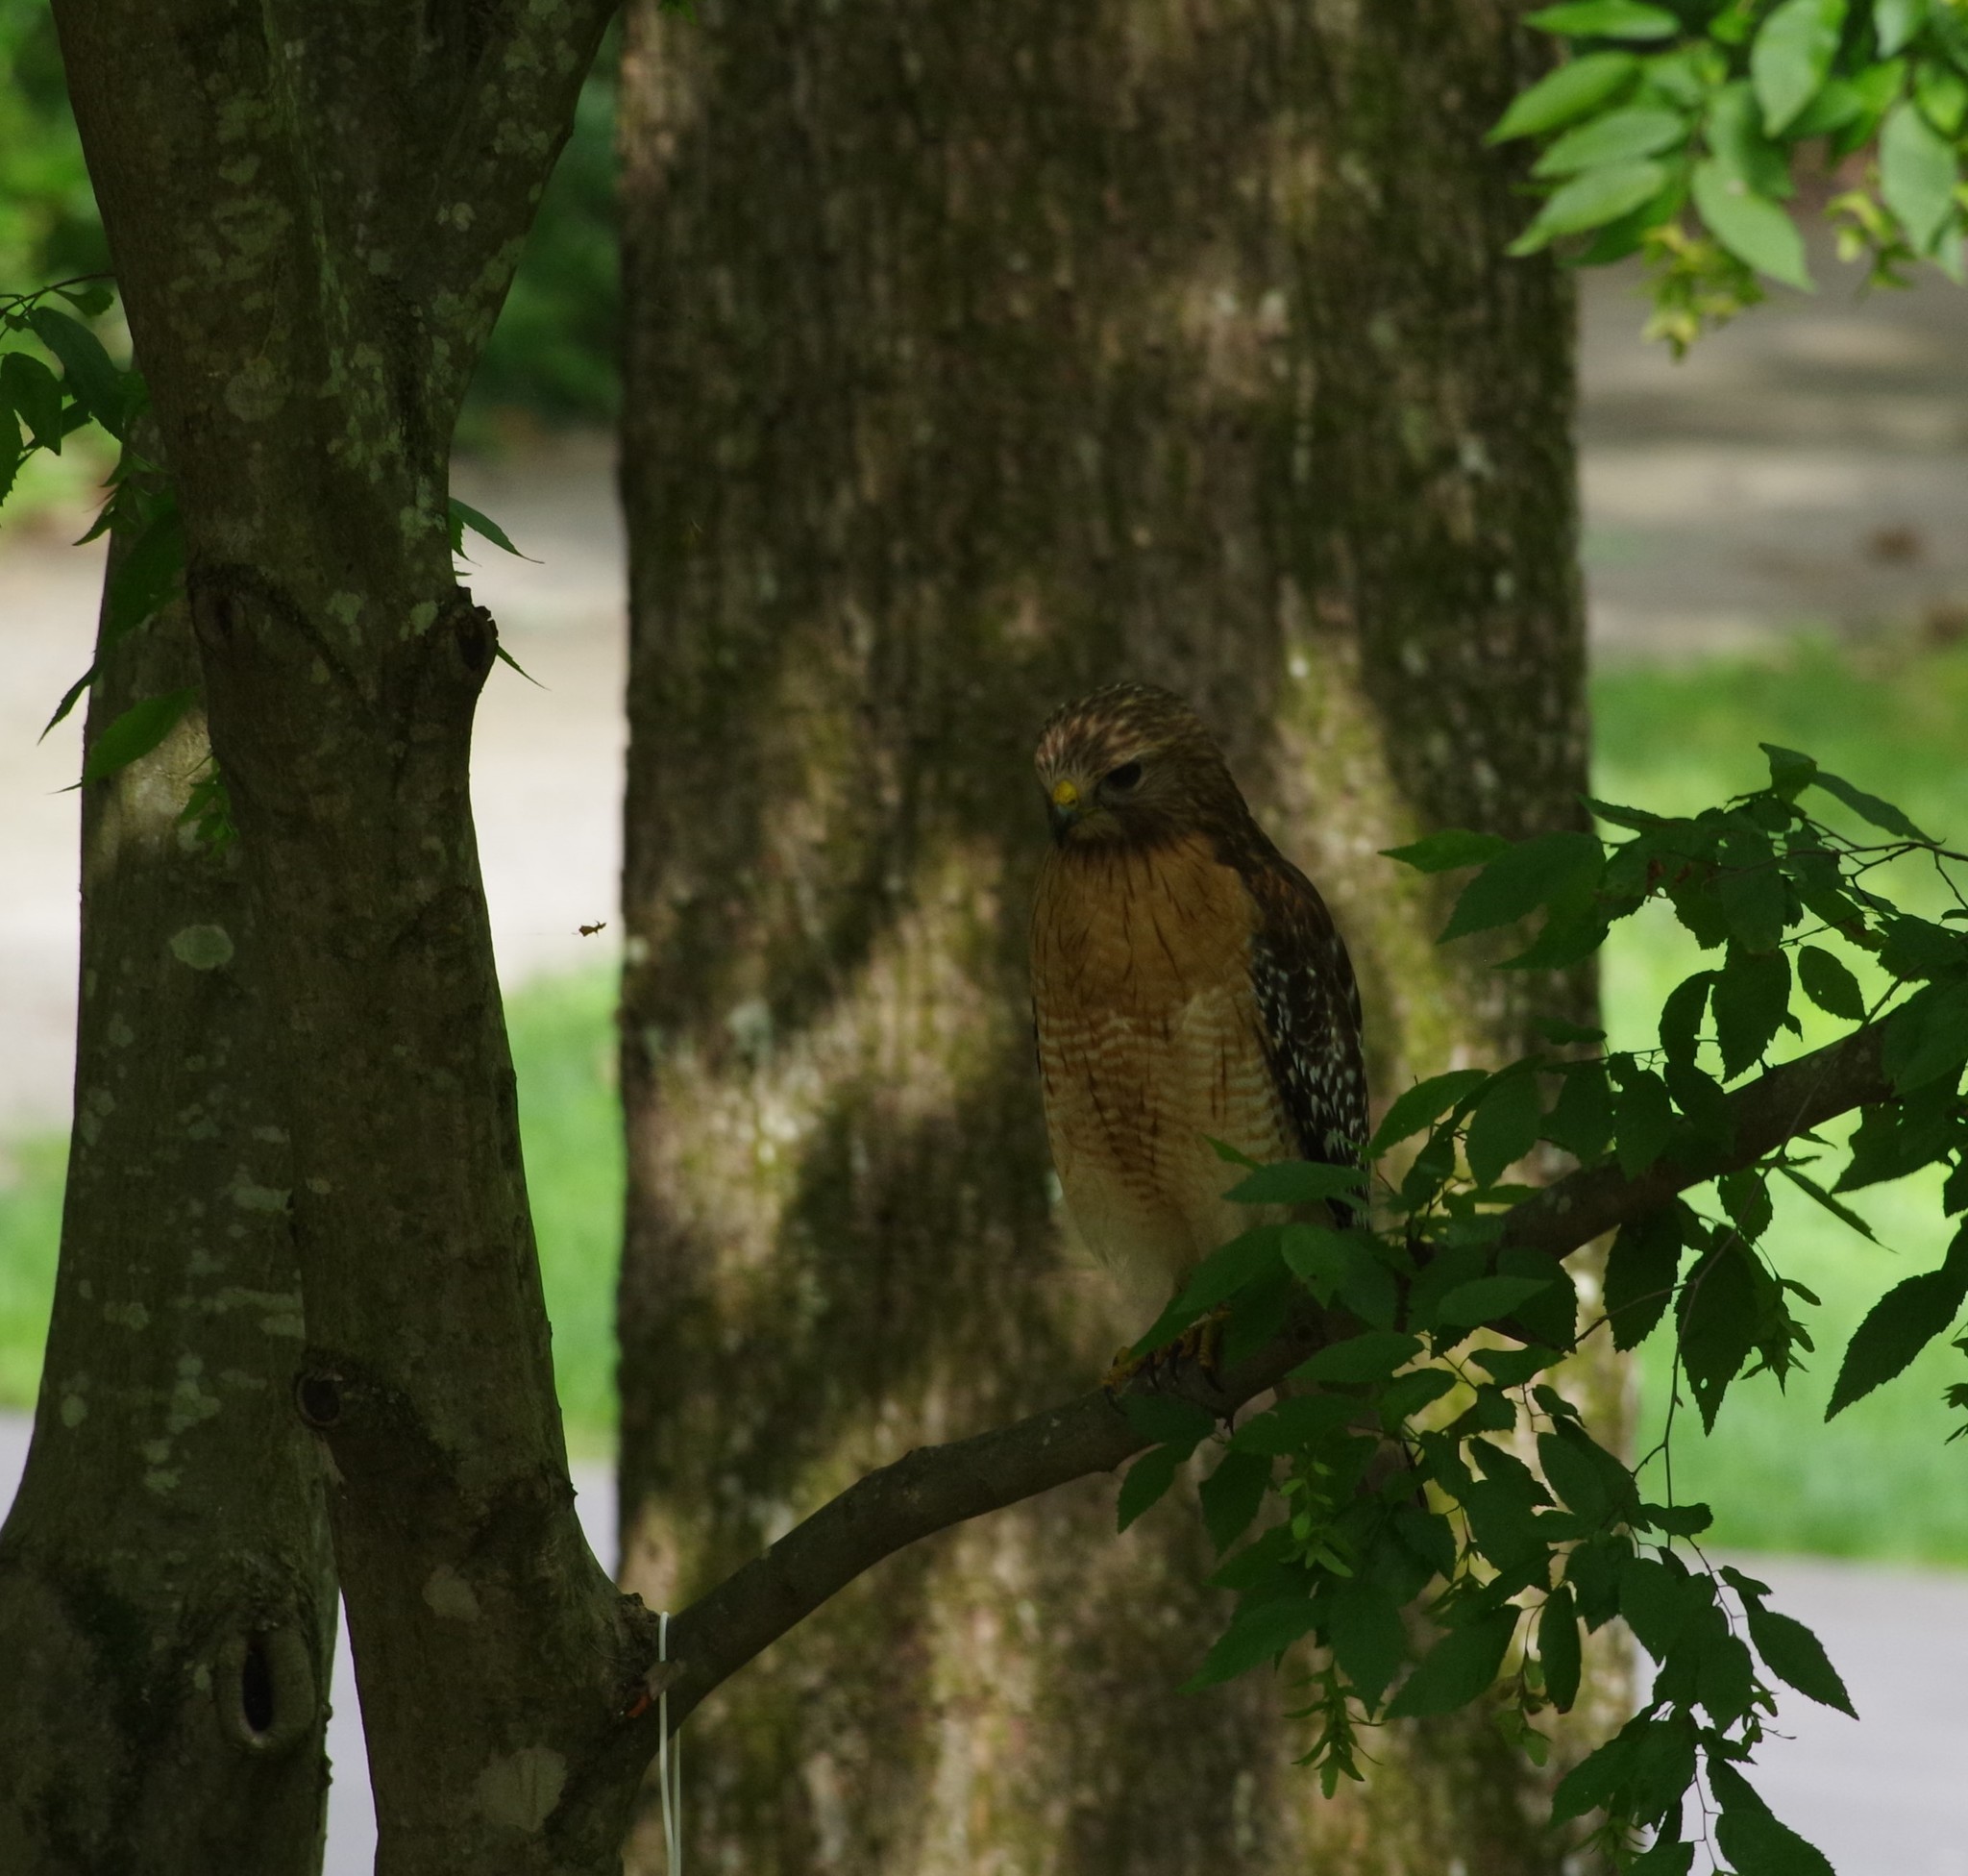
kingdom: Animalia
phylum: Chordata
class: Aves
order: Accipitriformes
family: Accipitridae
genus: Buteo
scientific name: Buteo lineatus
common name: Red-shouldered hawk
